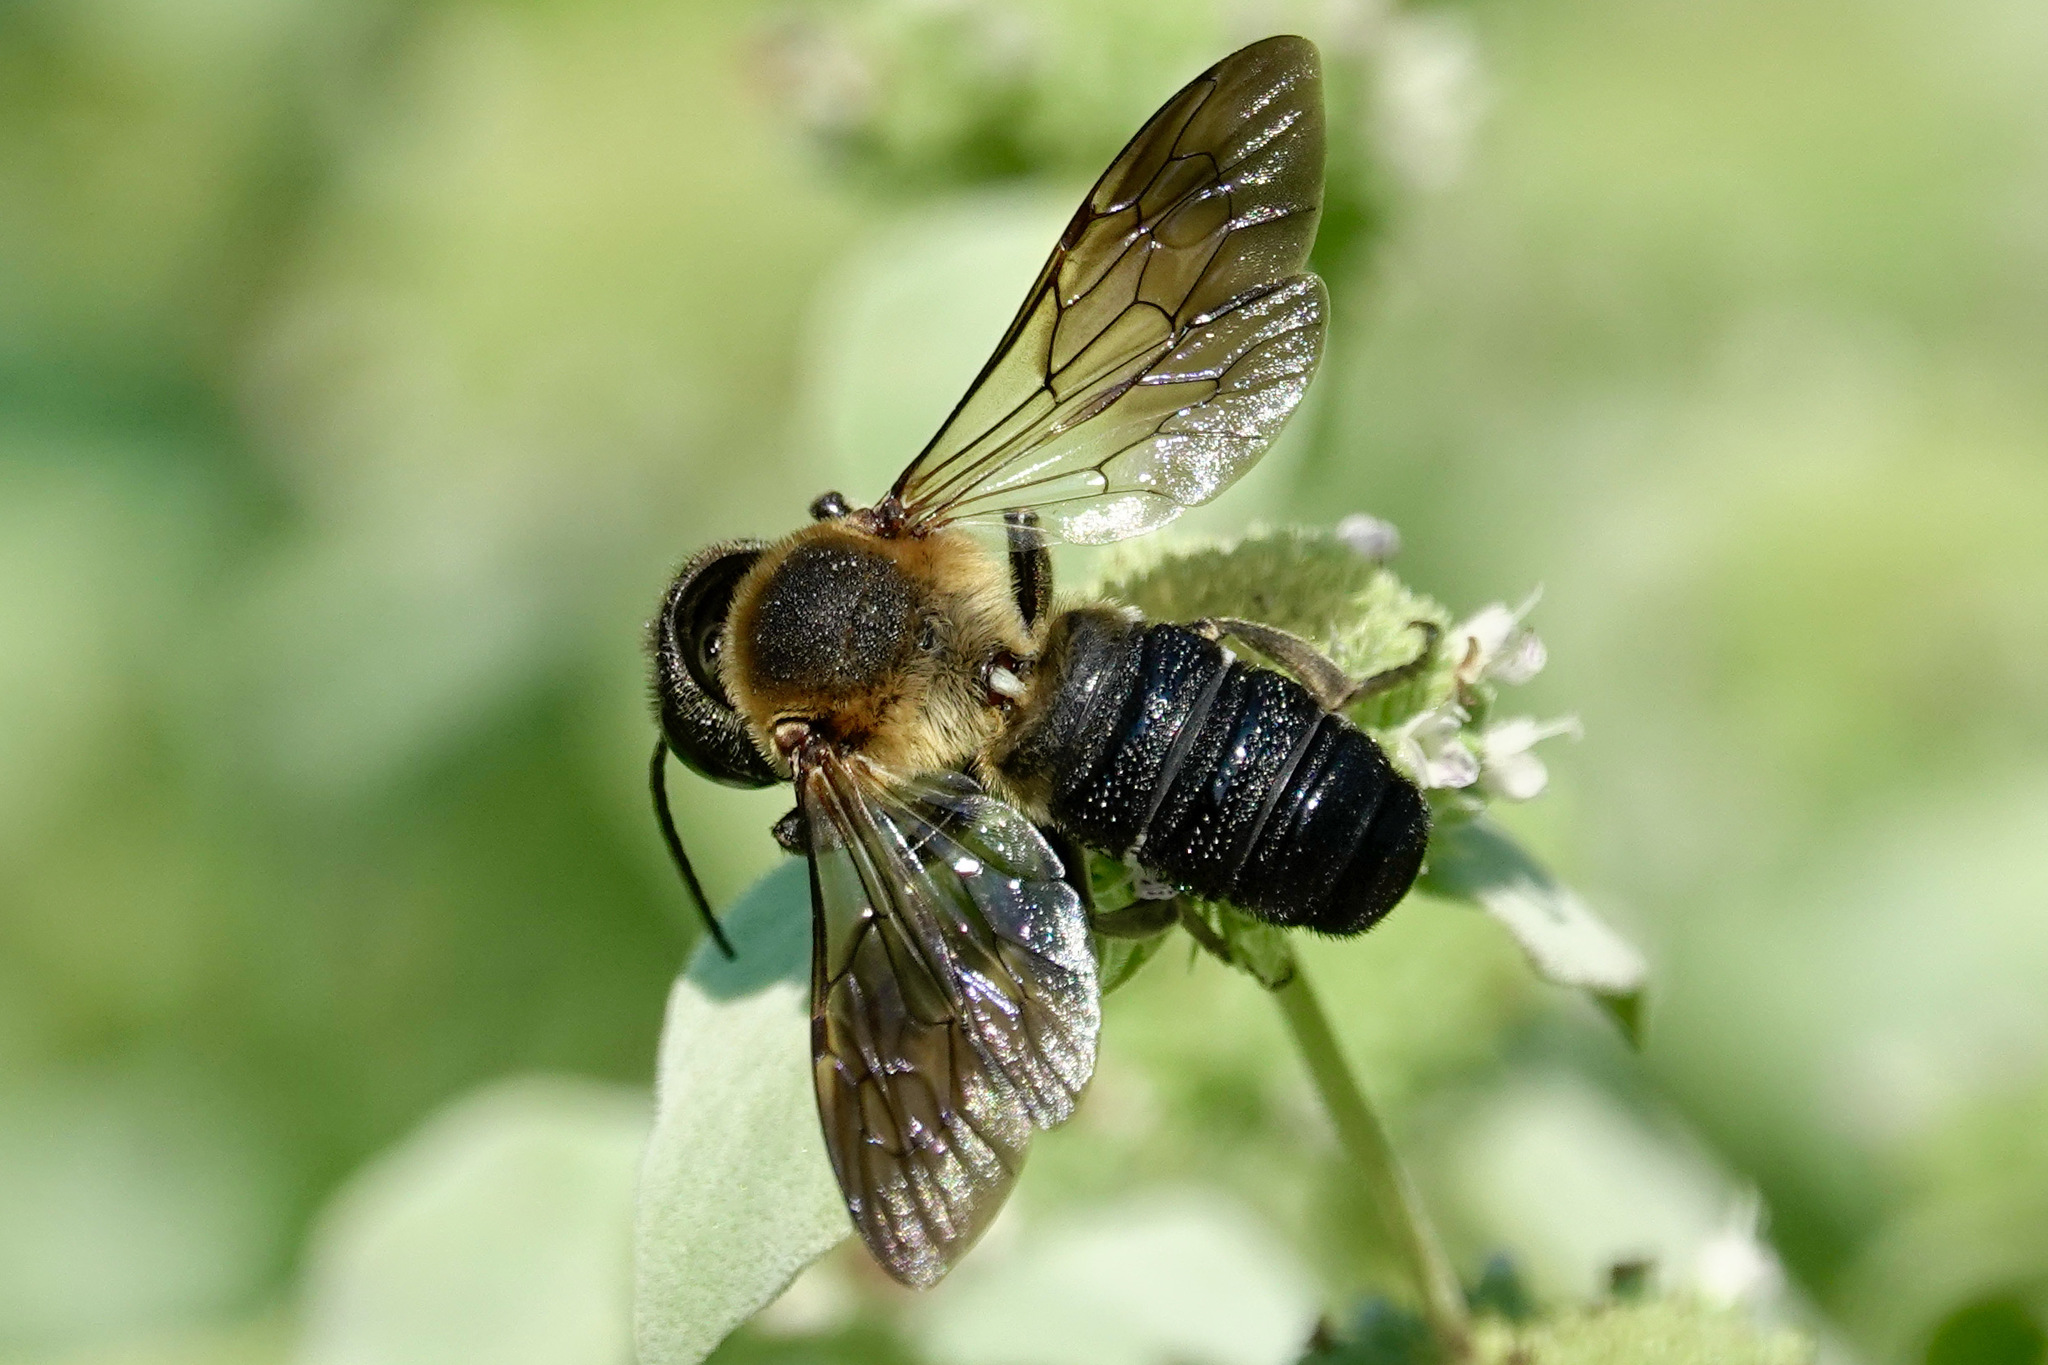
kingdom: Animalia
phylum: Arthropoda
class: Insecta
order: Hymenoptera
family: Megachilidae
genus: Megachile
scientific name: Megachile sculpturalis
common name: Sculptured resin bee
